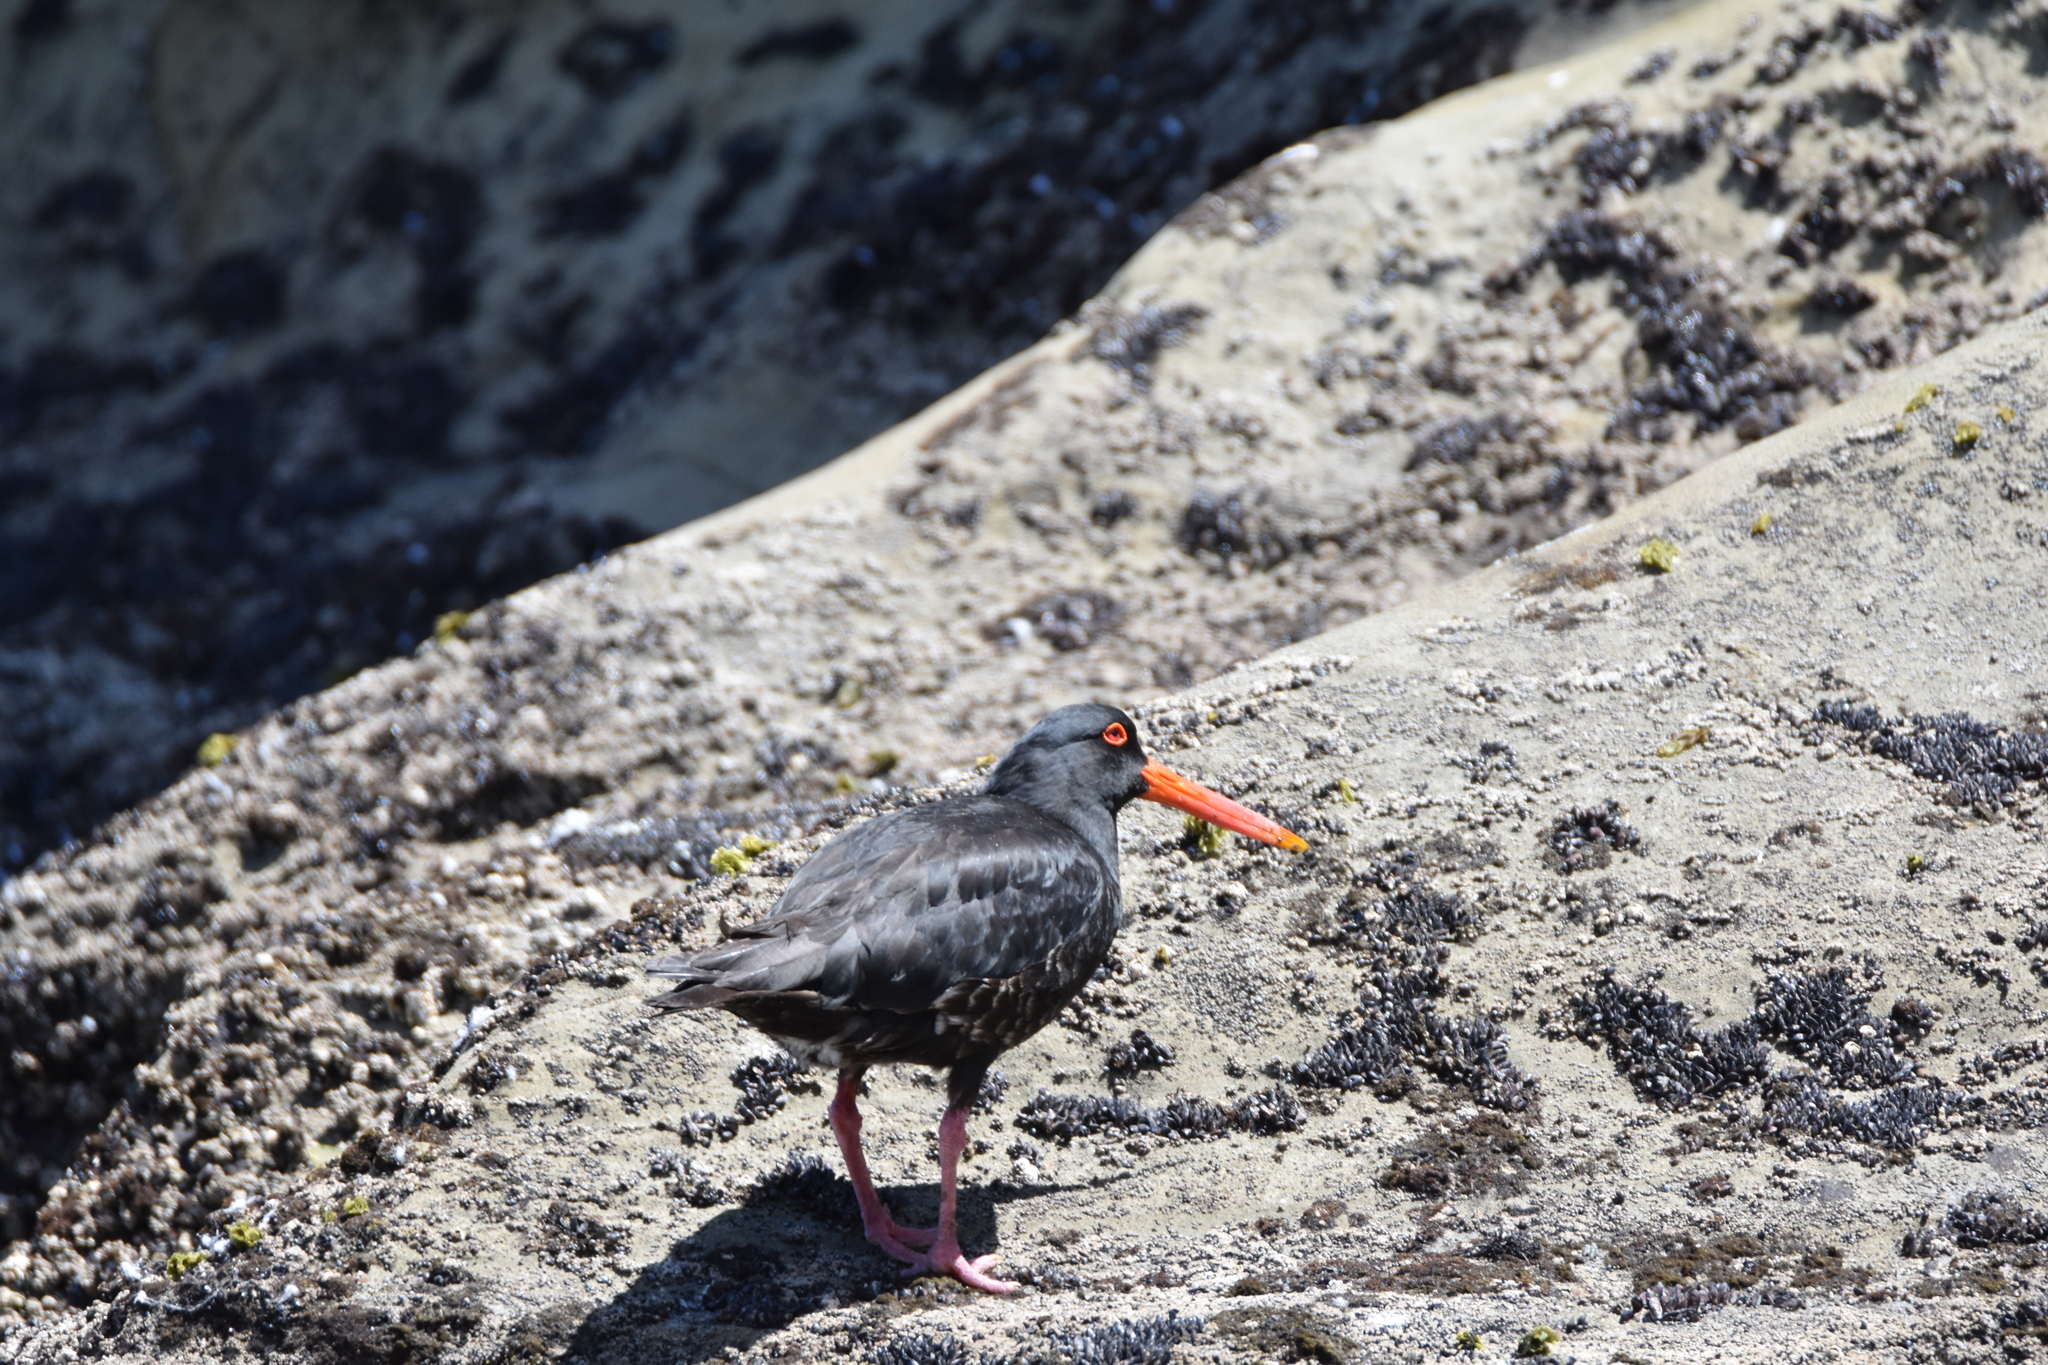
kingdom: Animalia
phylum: Chordata
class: Aves
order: Charadriiformes
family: Haematopodidae
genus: Haematopus
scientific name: Haematopus unicolor
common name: Variable oystercatcher
